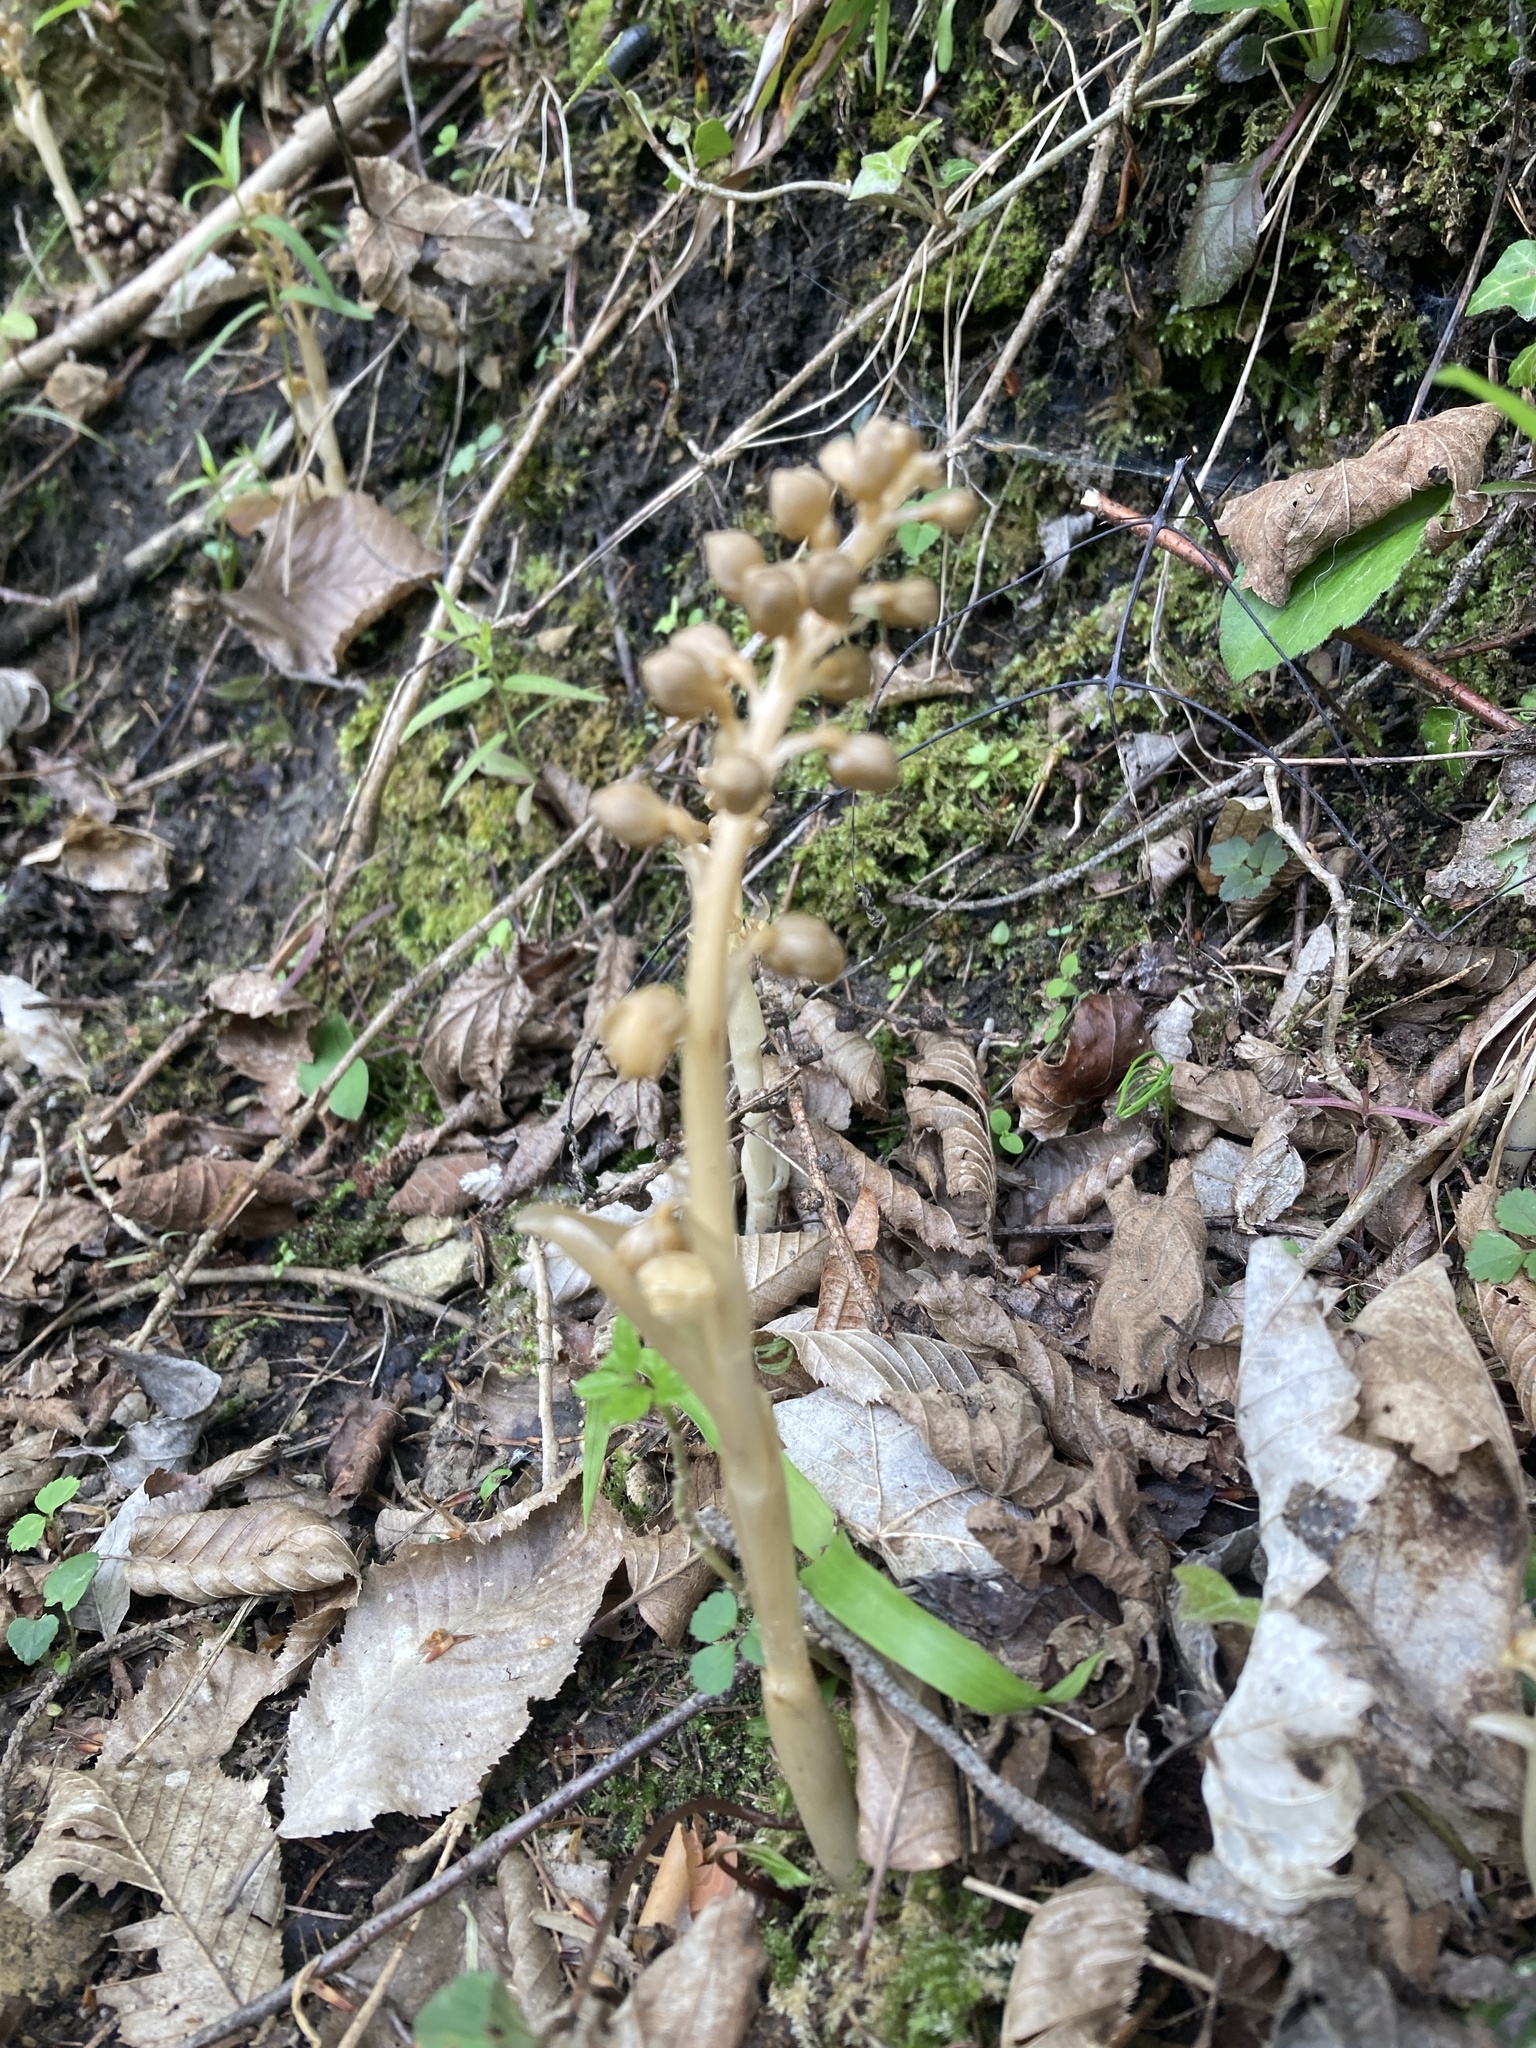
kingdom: Plantae
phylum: Tracheophyta
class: Liliopsida
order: Asparagales
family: Orchidaceae
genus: Neottia
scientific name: Neottia nidus-avis
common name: Bird's-nest orchid
